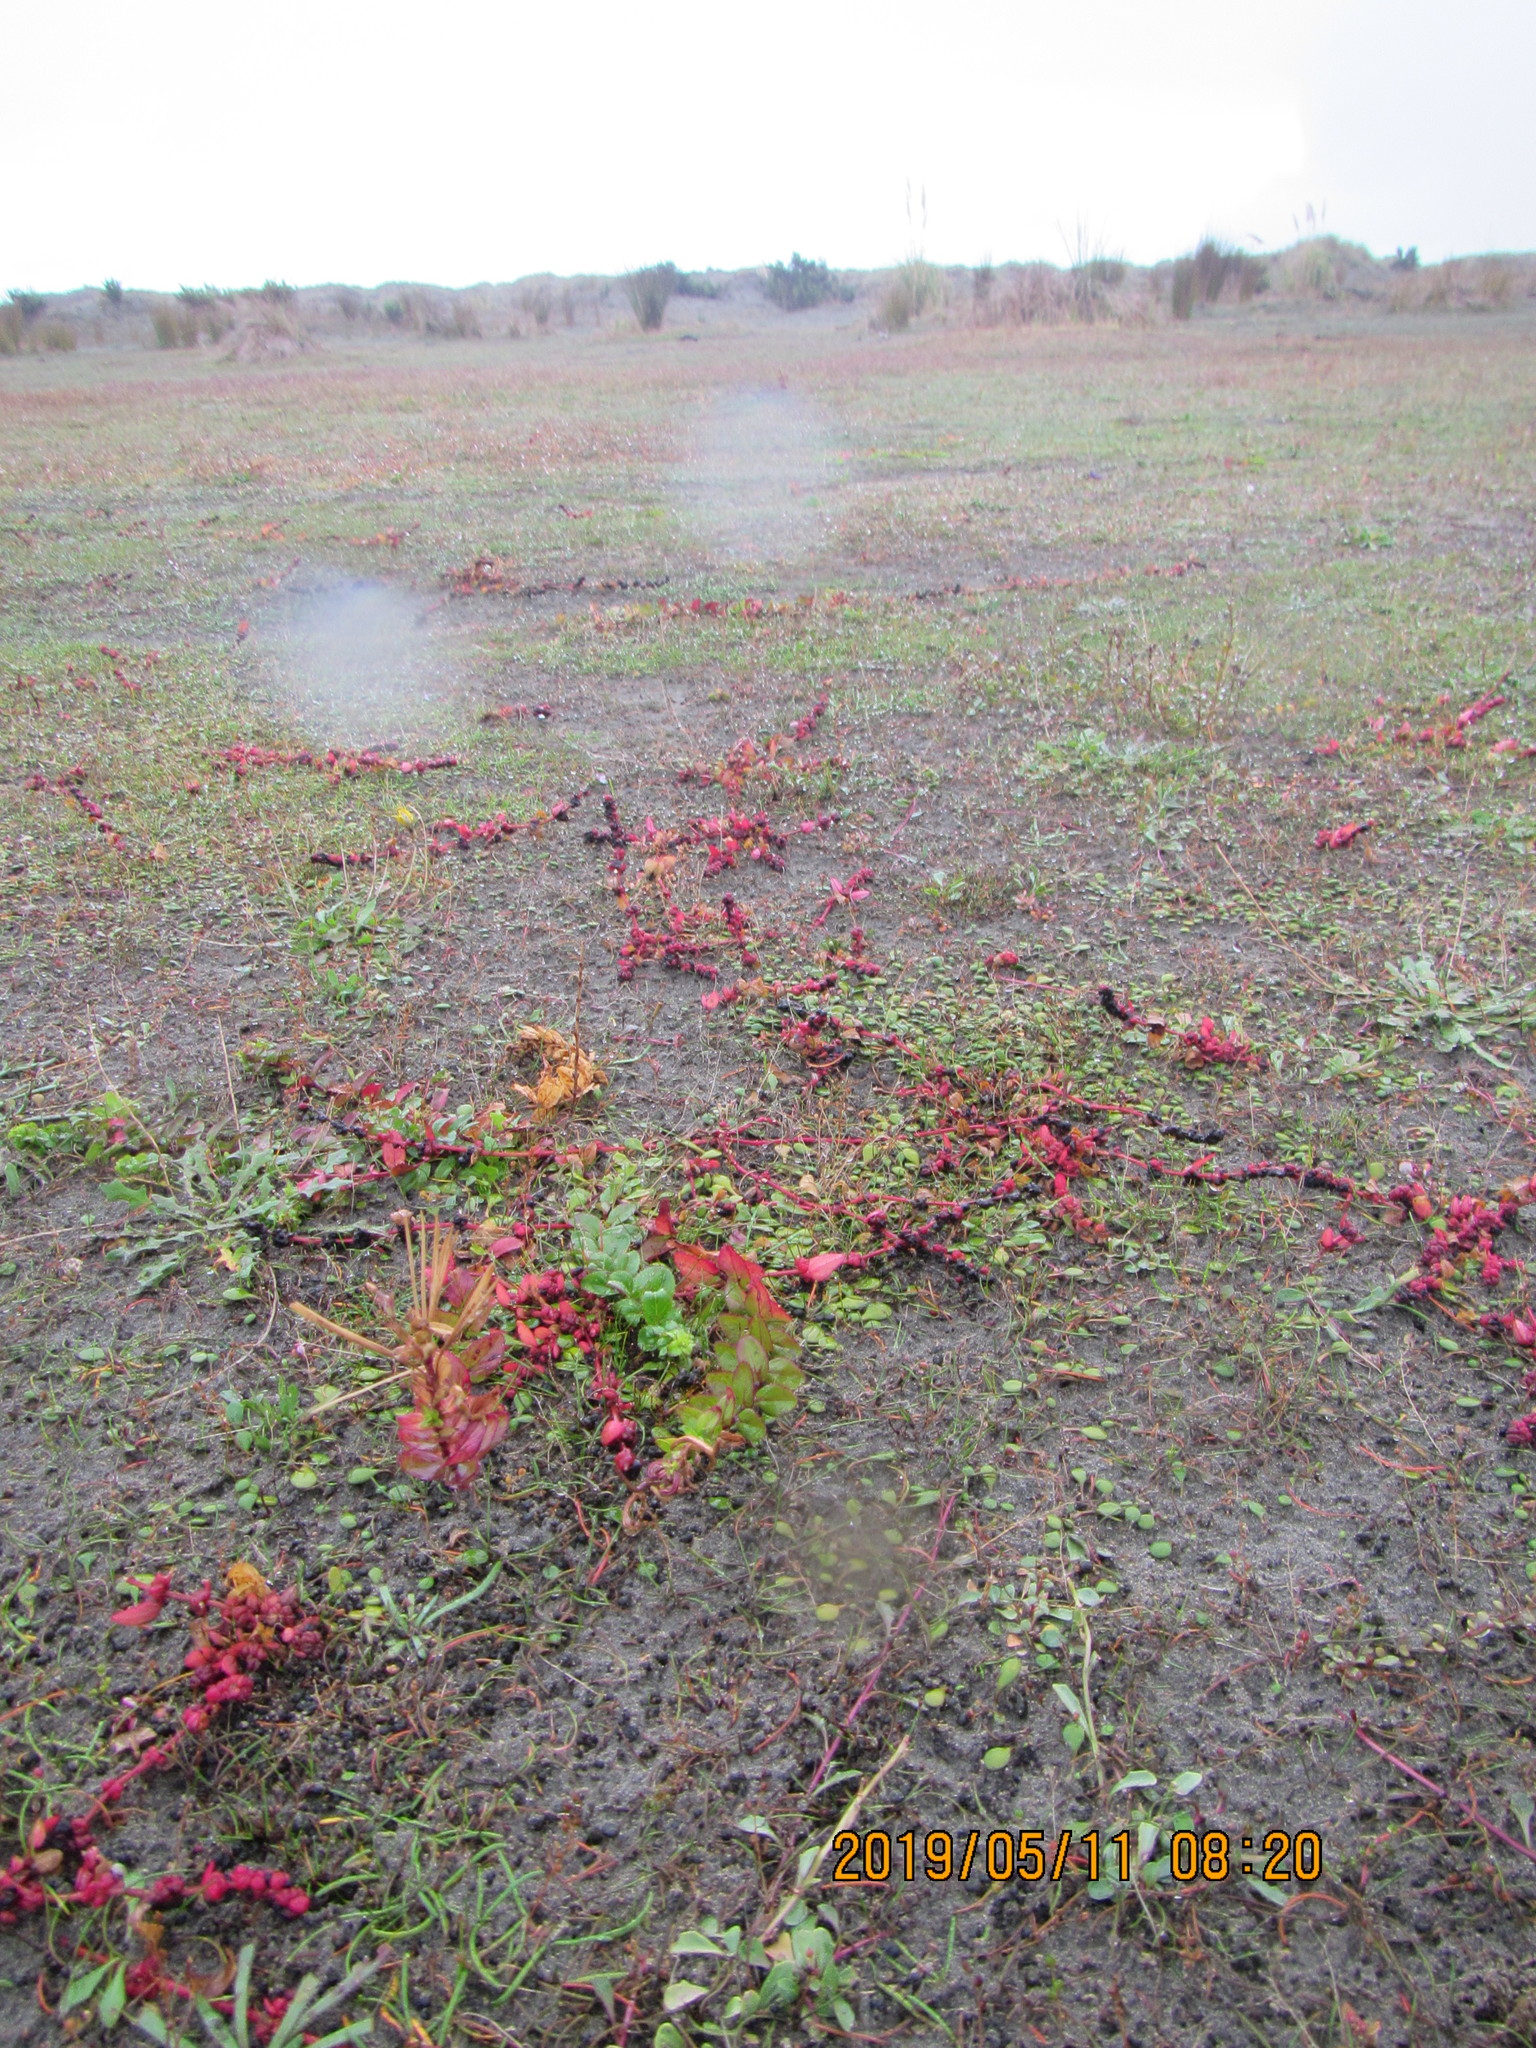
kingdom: Plantae
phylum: Tracheophyta
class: Magnoliopsida
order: Myrtales
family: Onagraceae
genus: Epilobium
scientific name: Epilobium billardiereanum
